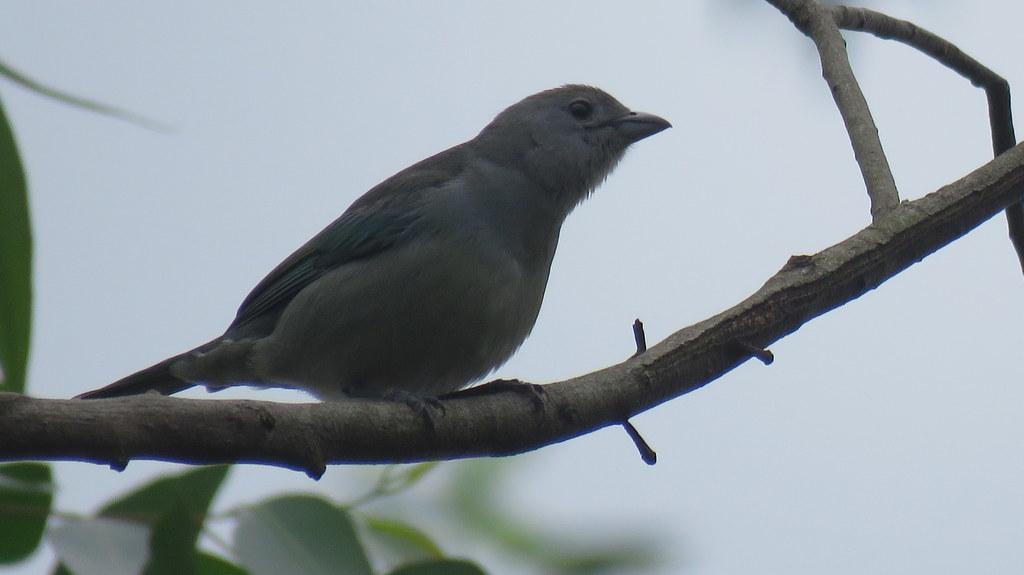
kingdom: Animalia
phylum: Chordata
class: Aves
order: Passeriformes
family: Thraupidae
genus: Thraupis
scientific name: Thraupis sayaca
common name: Sayaca tanager
